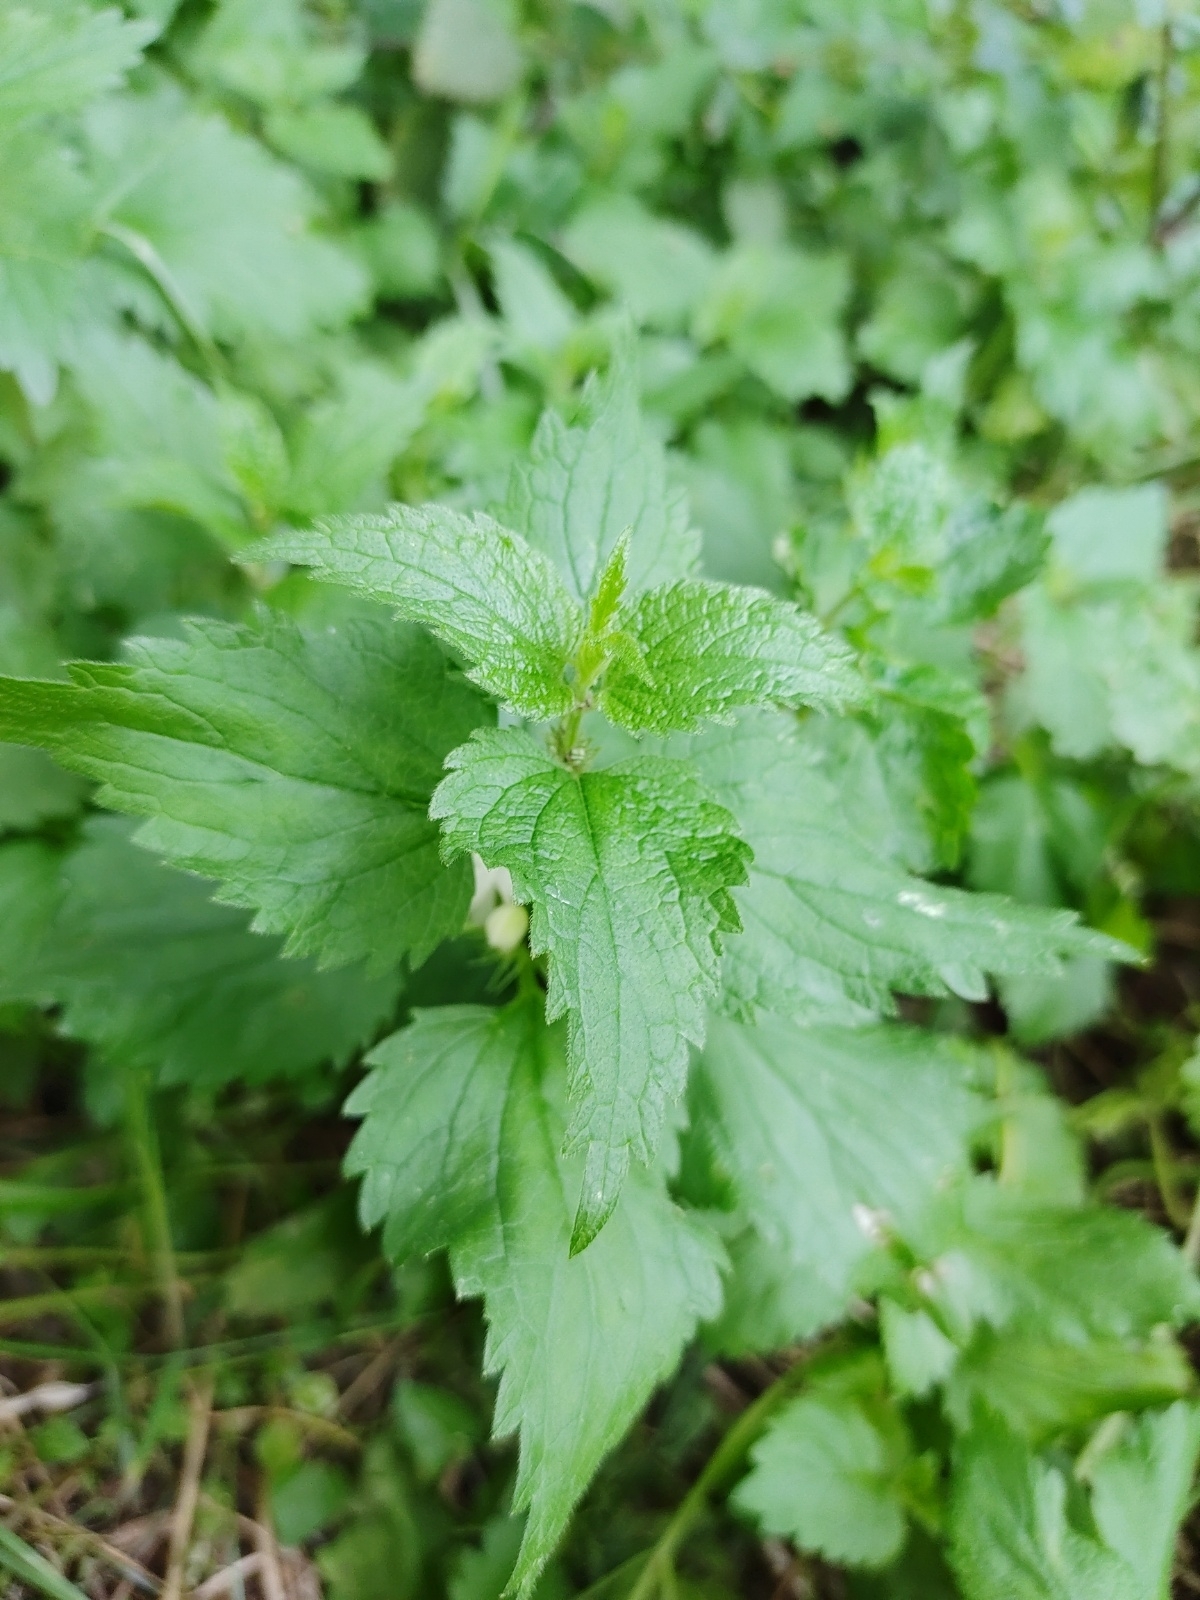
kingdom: Plantae
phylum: Tracheophyta
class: Magnoliopsida
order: Lamiales
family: Lamiaceae
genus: Lamium
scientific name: Lamium album
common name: White dead-nettle
